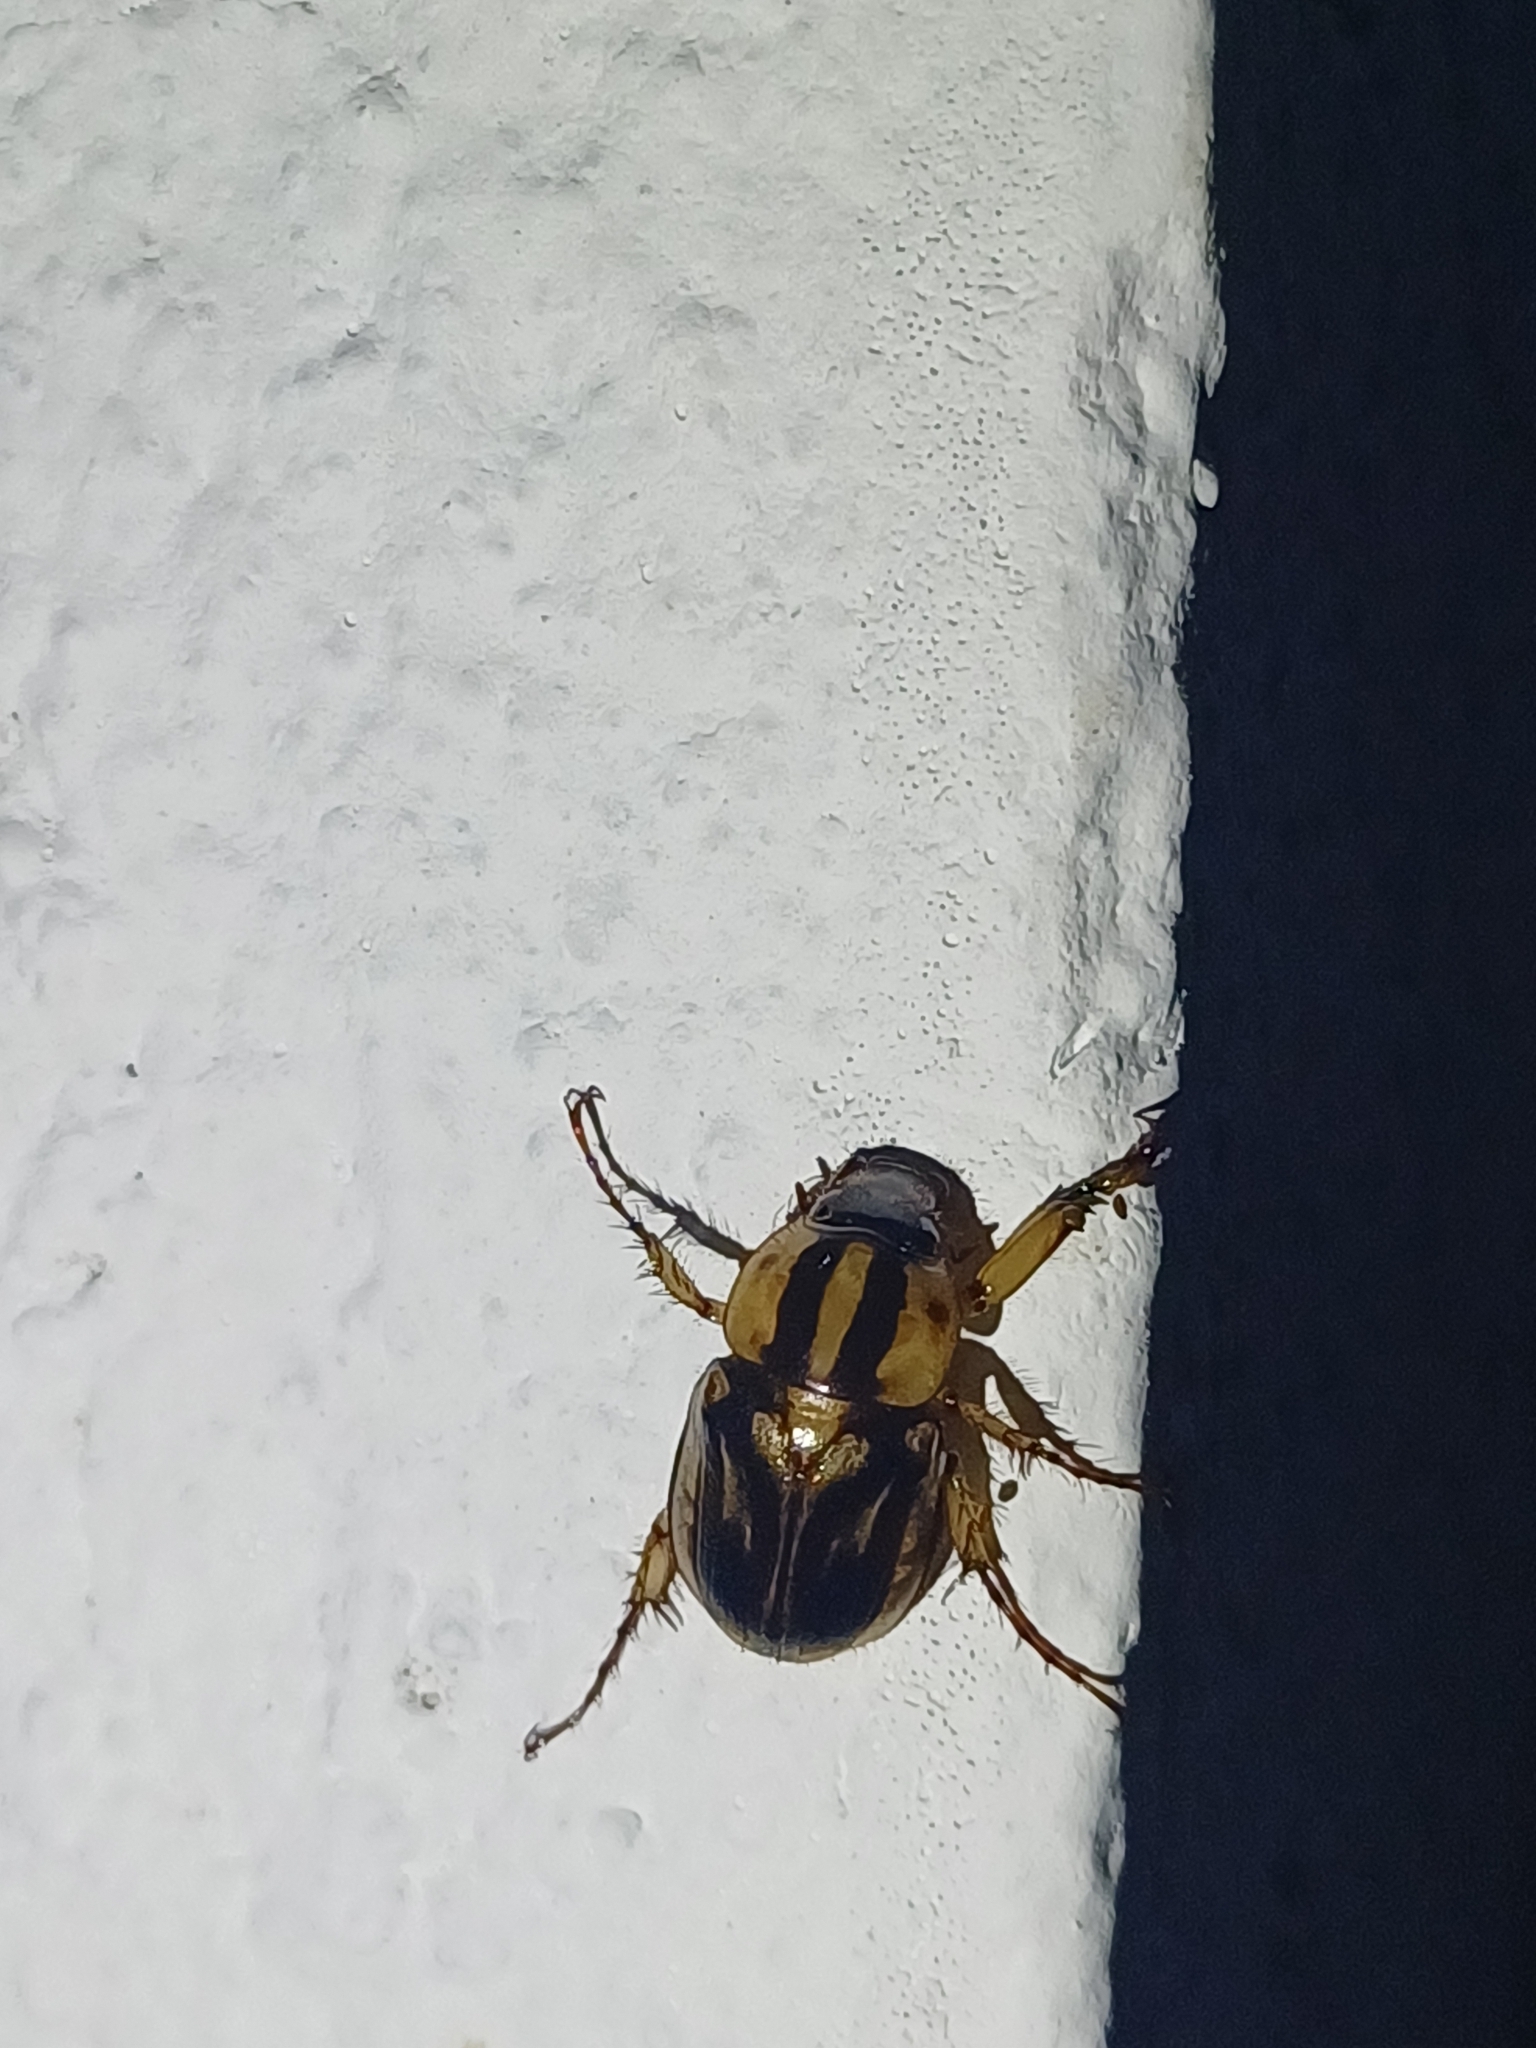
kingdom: Animalia
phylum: Arthropoda
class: Insecta
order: Coleoptera
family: Scarabaeidae
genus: Cyclocephala
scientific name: Cyclocephala amazona
